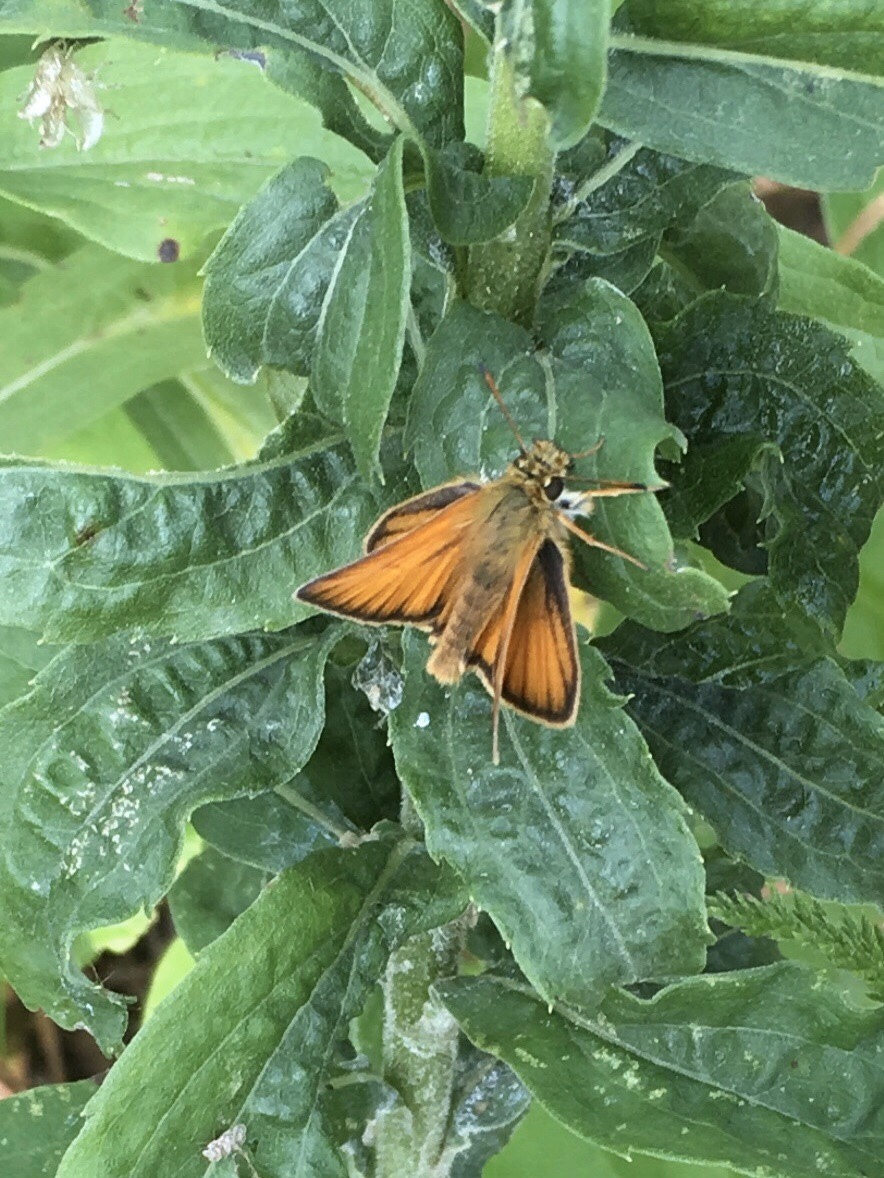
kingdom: Animalia
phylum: Arthropoda
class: Insecta
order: Lepidoptera
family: Hesperiidae
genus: Thymelicus
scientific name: Thymelicus lineola
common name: Essex skipper
